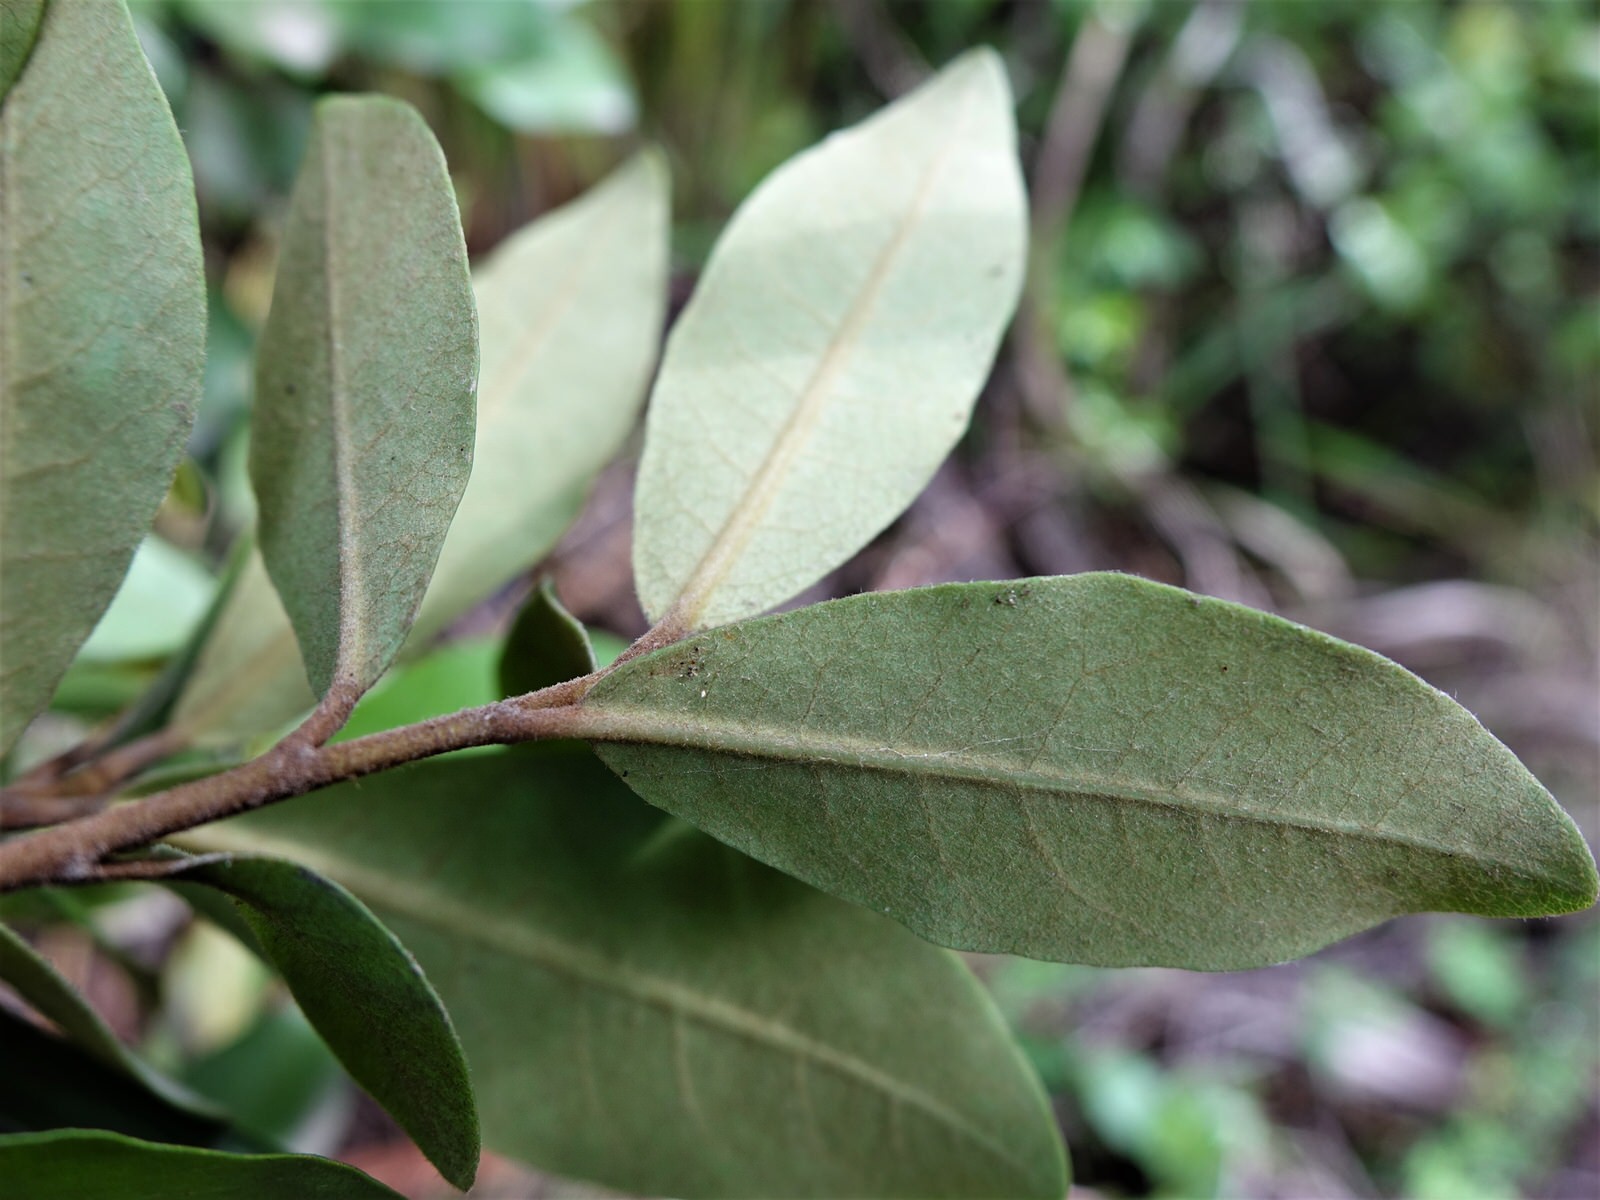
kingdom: Plantae
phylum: Tracheophyta
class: Magnoliopsida
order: Apiales
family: Pittosporaceae
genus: Pittosporum
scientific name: Pittosporum ellipticum
